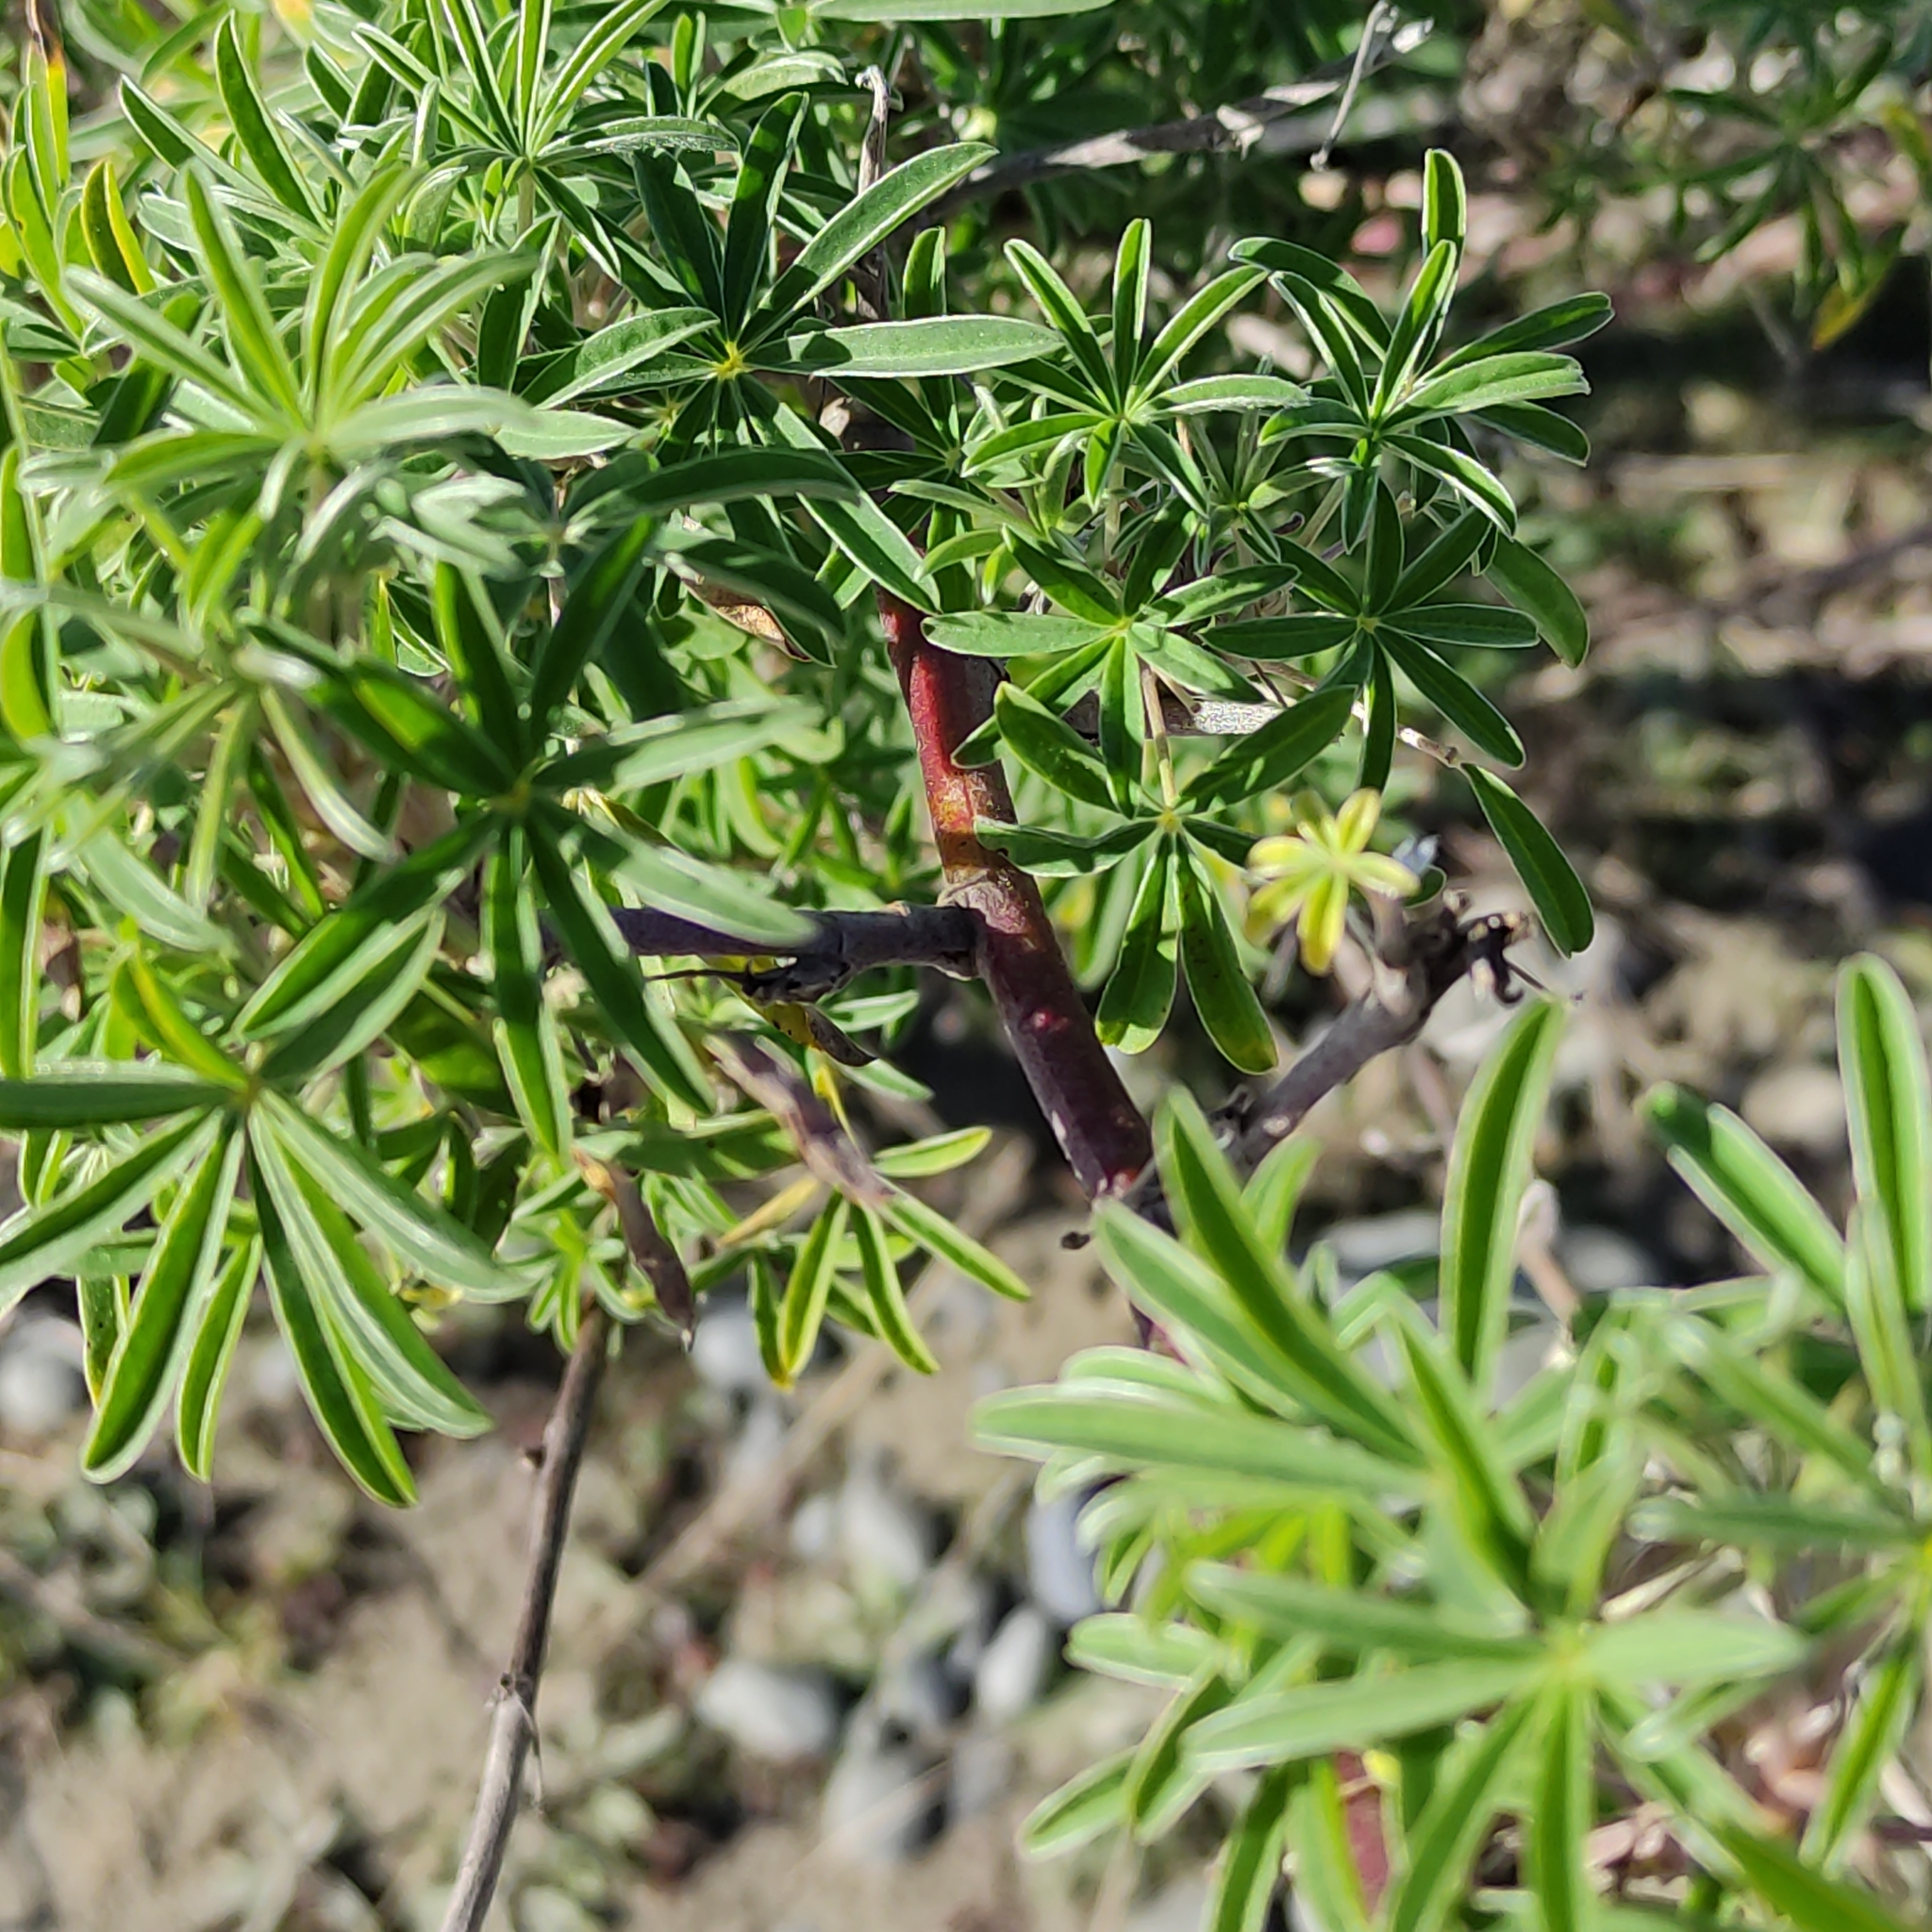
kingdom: Plantae
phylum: Tracheophyta
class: Magnoliopsida
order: Fabales
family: Fabaceae
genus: Lupinus
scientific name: Lupinus arboreus
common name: Yellow bush lupine
